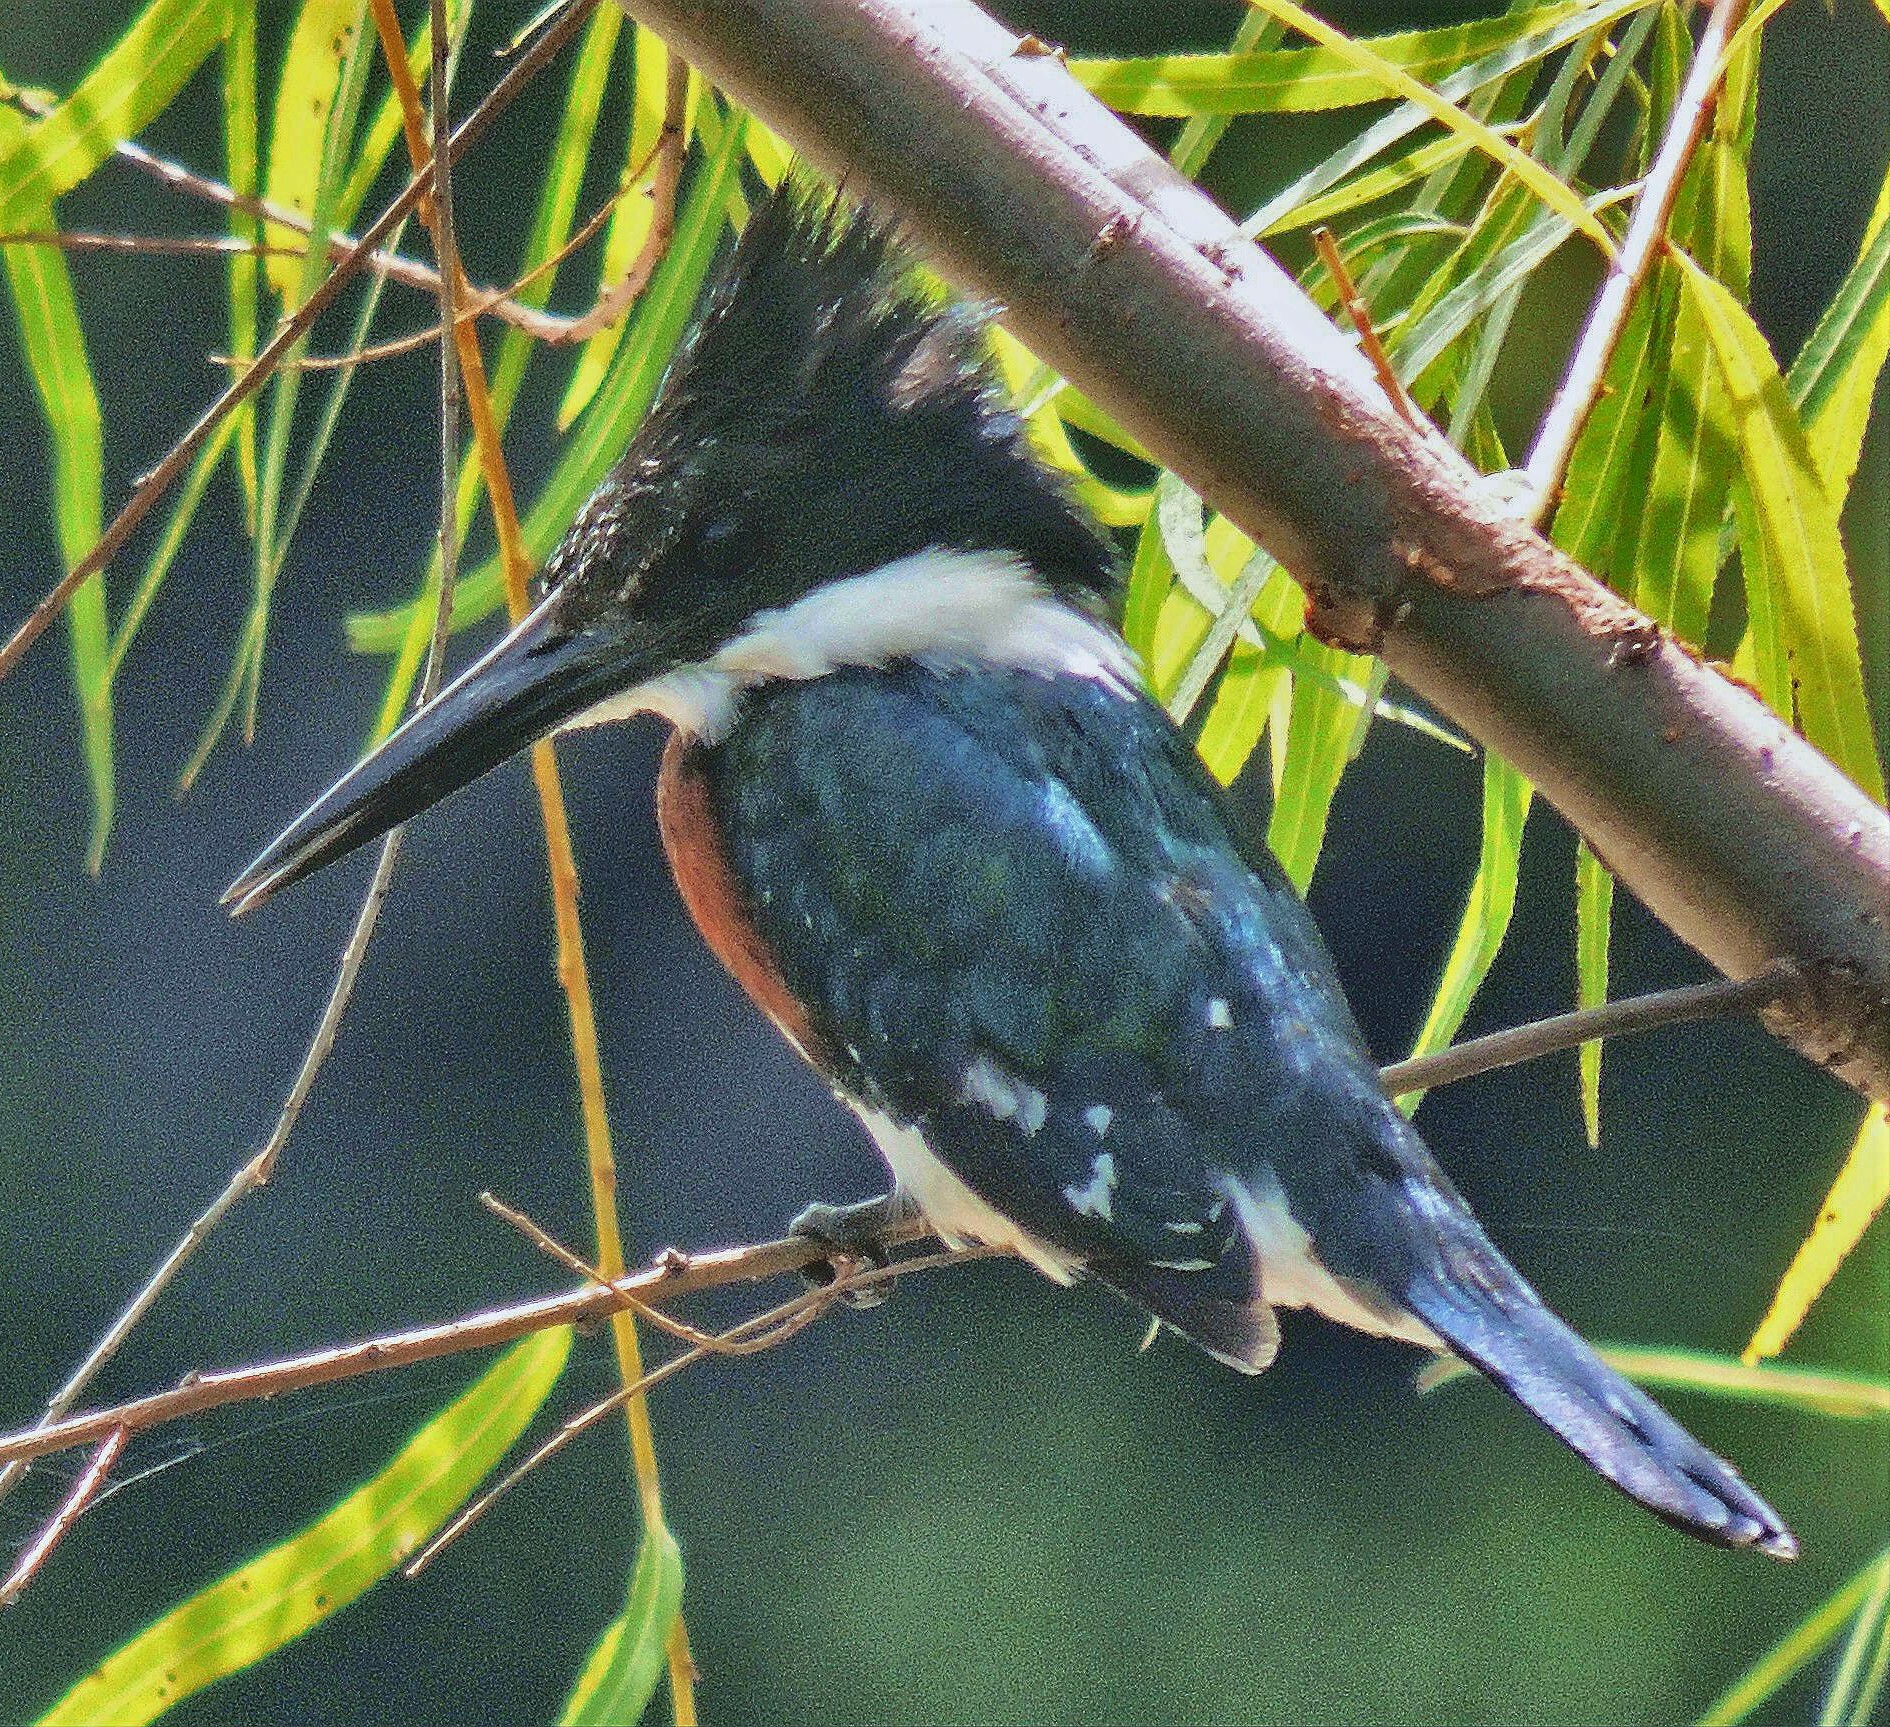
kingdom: Animalia
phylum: Chordata
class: Aves
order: Coraciiformes
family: Alcedinidae
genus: Chloroceryle
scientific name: Chloroceryle americana
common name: Green kingfisher
